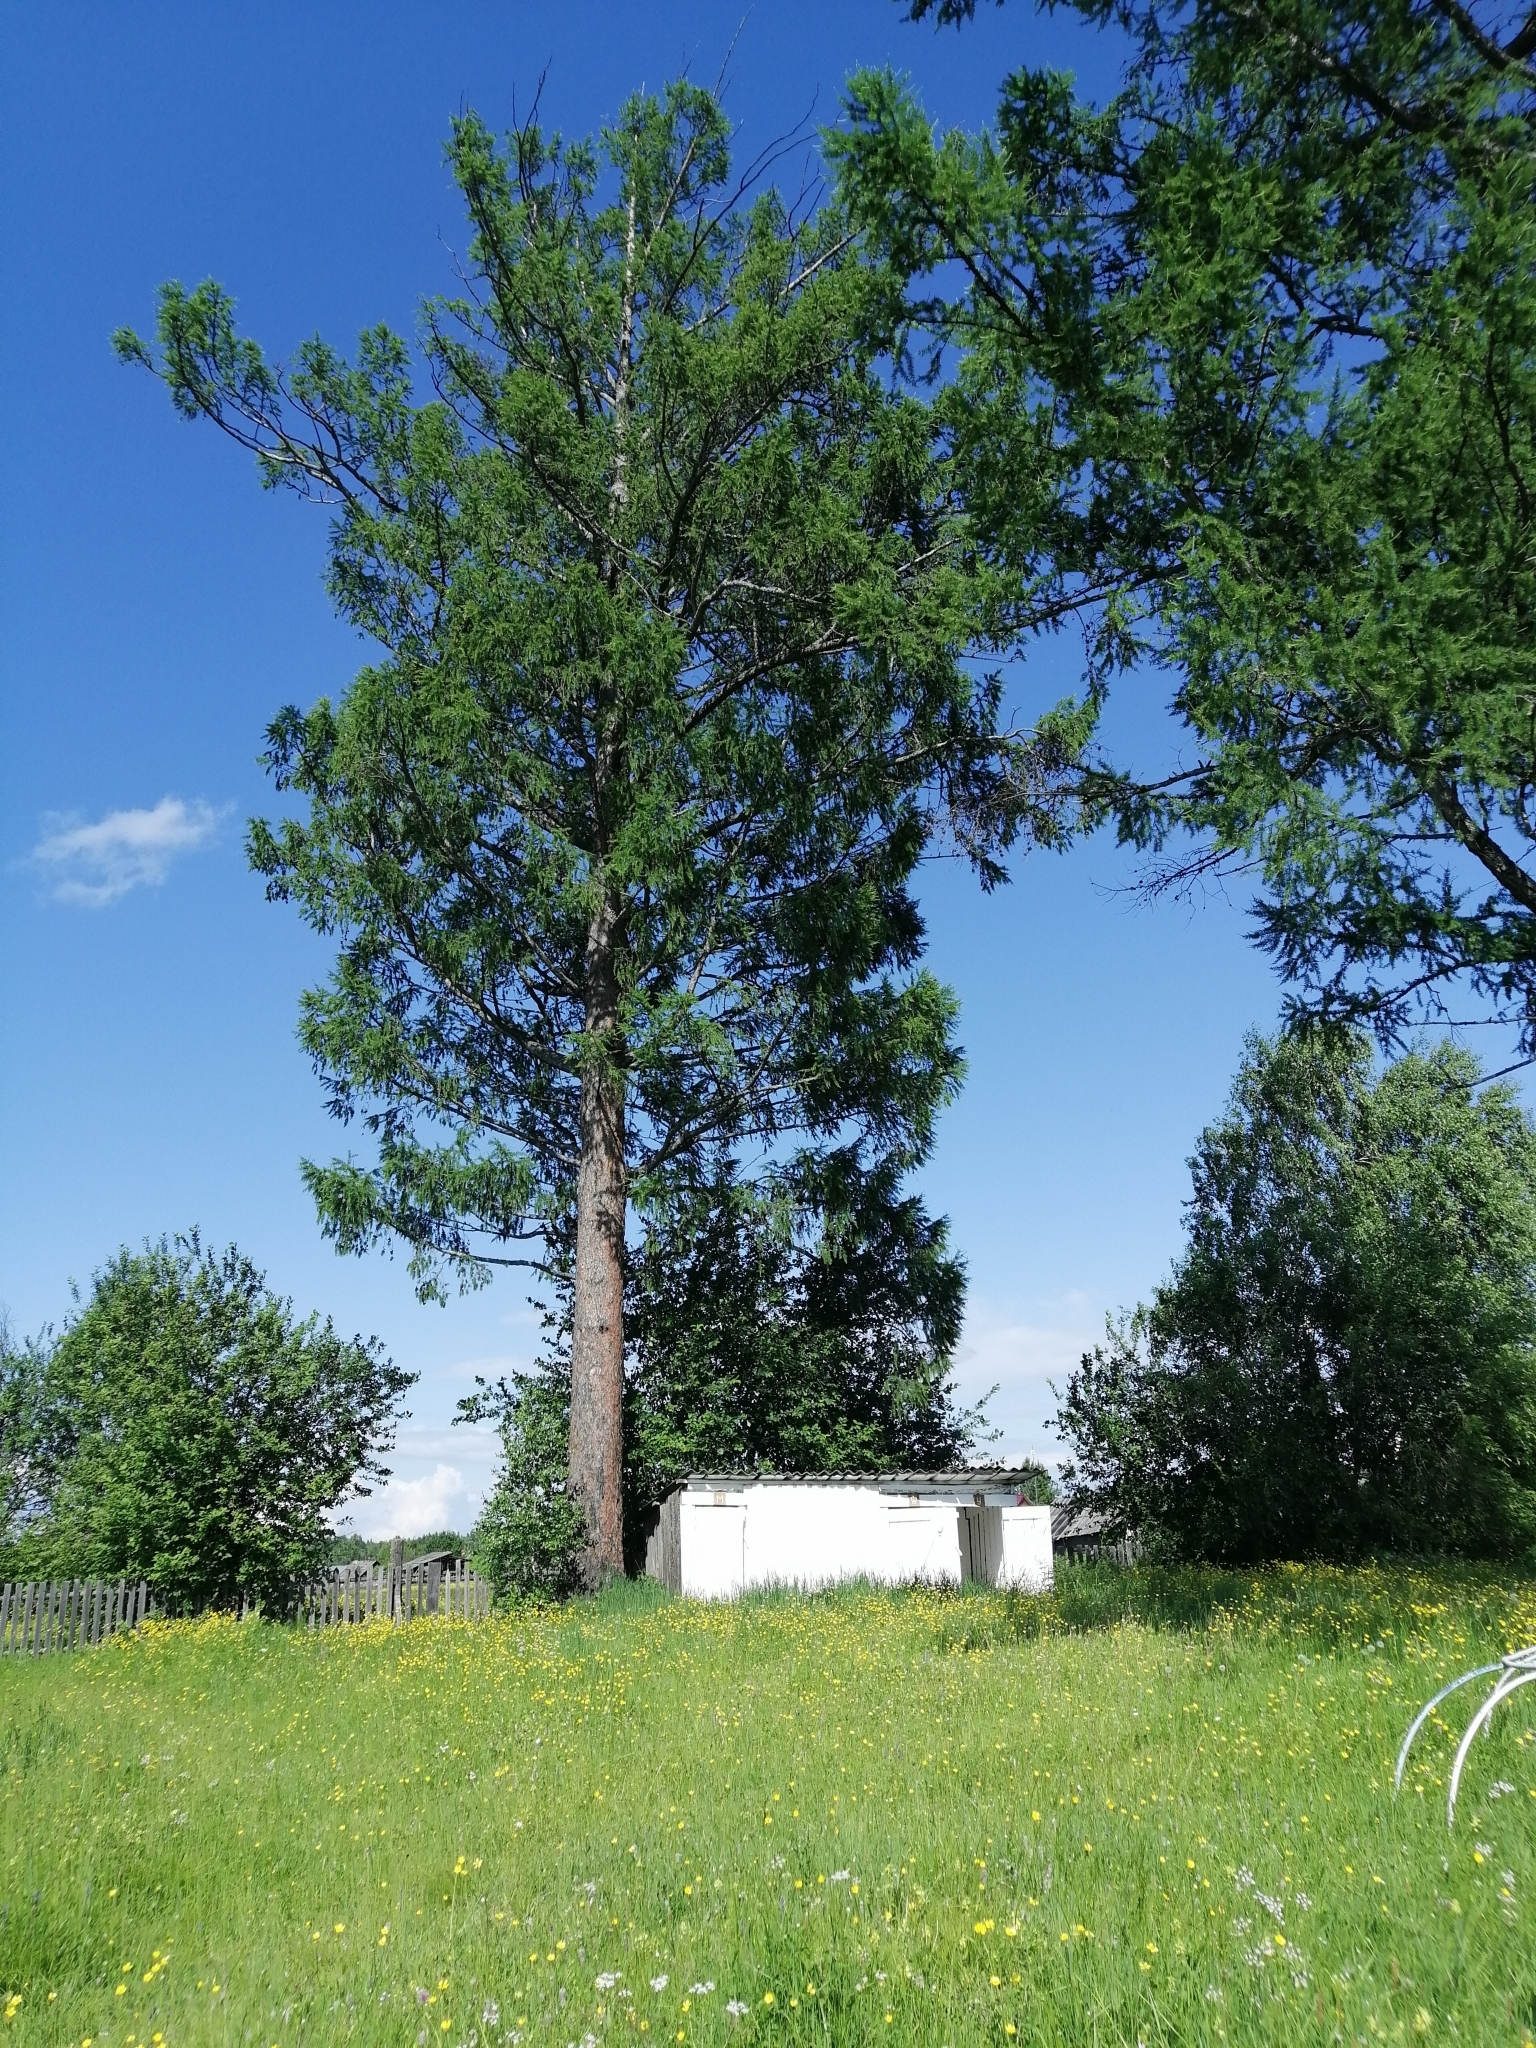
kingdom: Plantae
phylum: Tracheophyta
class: Pinopsida
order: Pinales
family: Pinaceae
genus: Larix
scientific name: Larix sibirica
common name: Siberian larch
